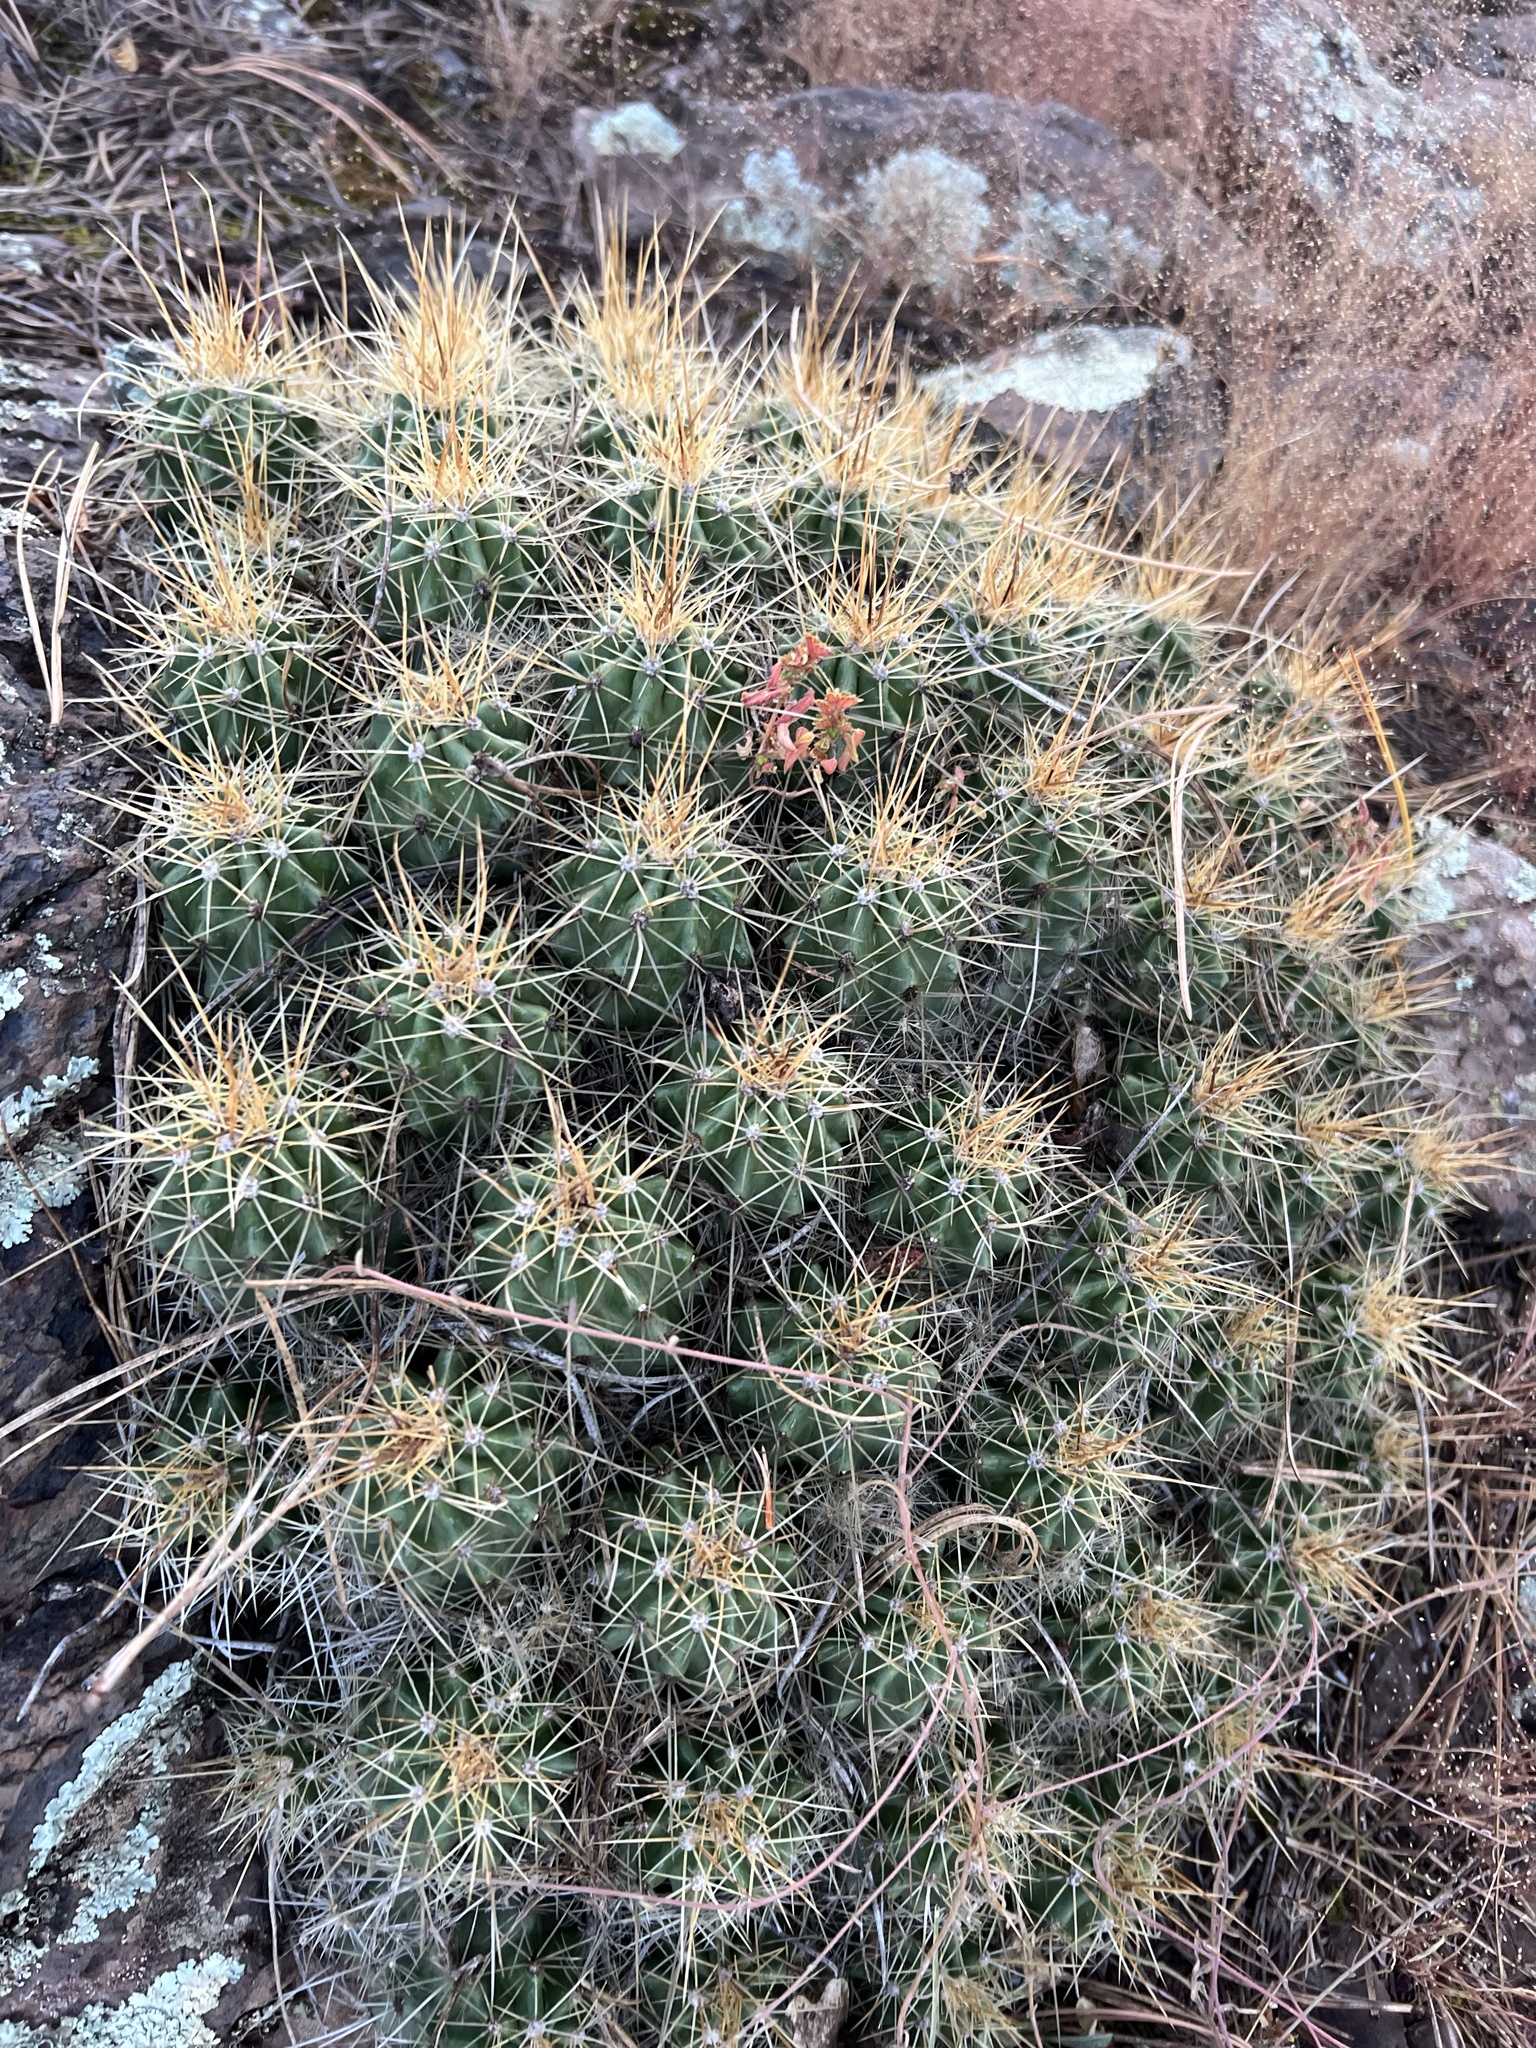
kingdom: Plantae
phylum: Tracheophyta
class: Magnoliopsida
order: Caryophyllales
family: Cactaceae
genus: Echinocereus
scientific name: Echinocereus bakeri
